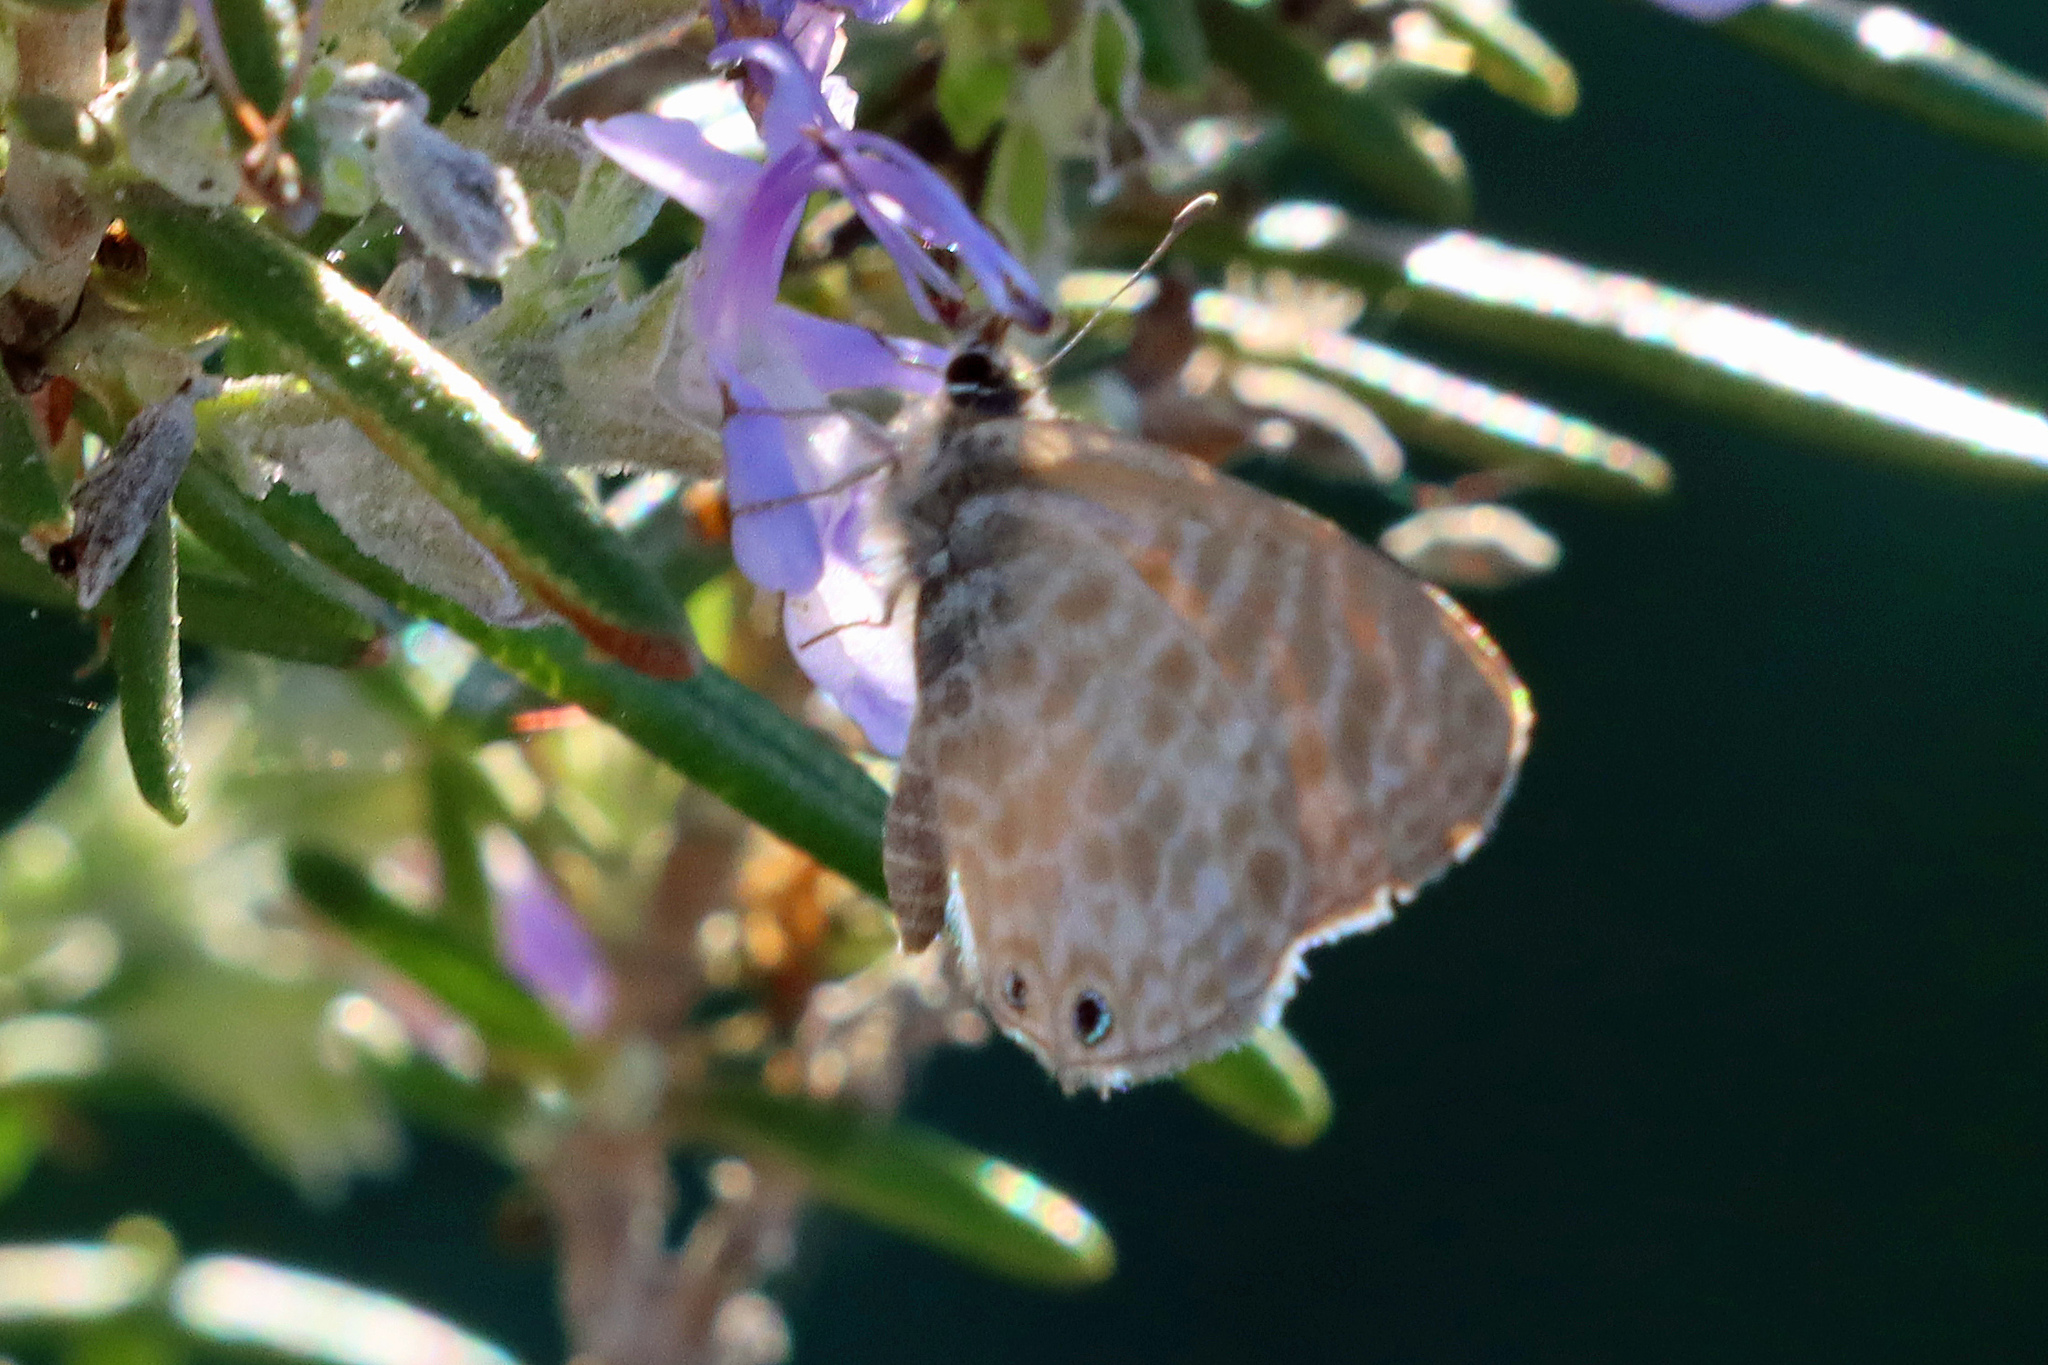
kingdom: Animalia
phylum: Arthropoda
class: Insecta
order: Lepidoptera
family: Lycaenidae
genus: Leptotes
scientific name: Leptotes pirithous
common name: Lang's short-tailed blue
